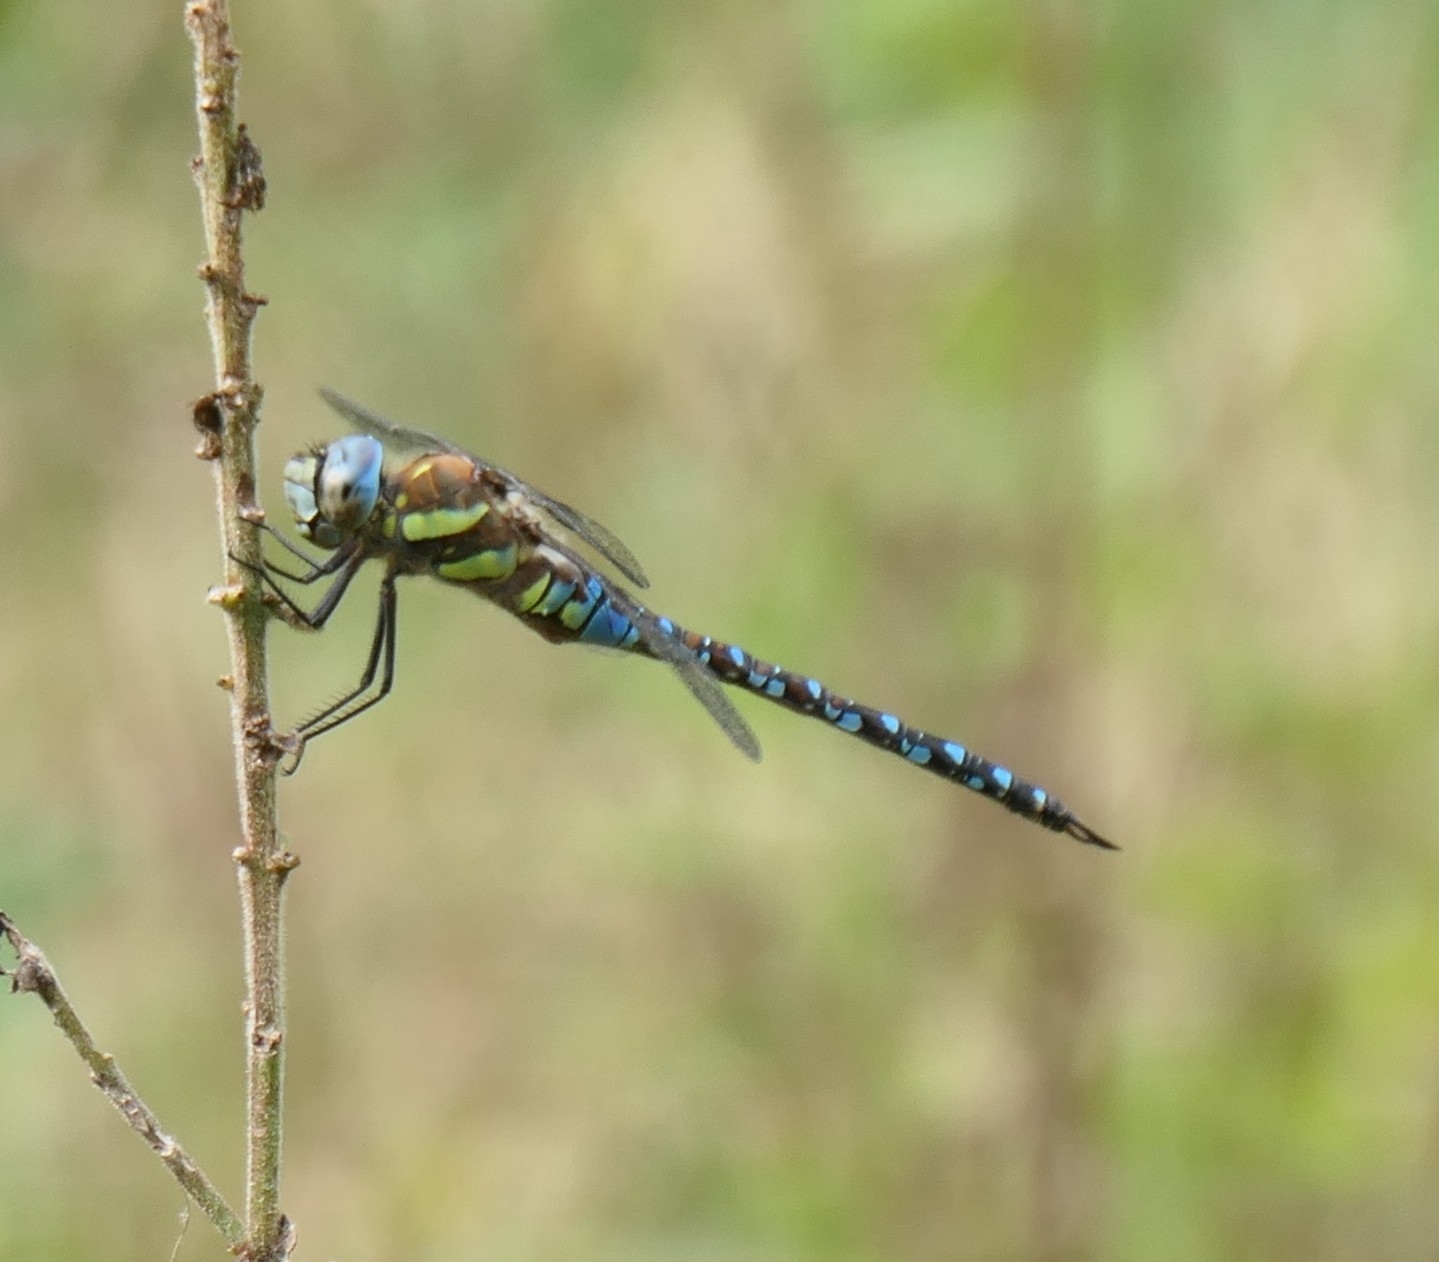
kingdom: Animalia
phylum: Arthropoda
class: Insecta
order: Odonata
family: Aeshnidae
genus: Aeshna
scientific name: Aeshna mixta
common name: Migrant hawker
